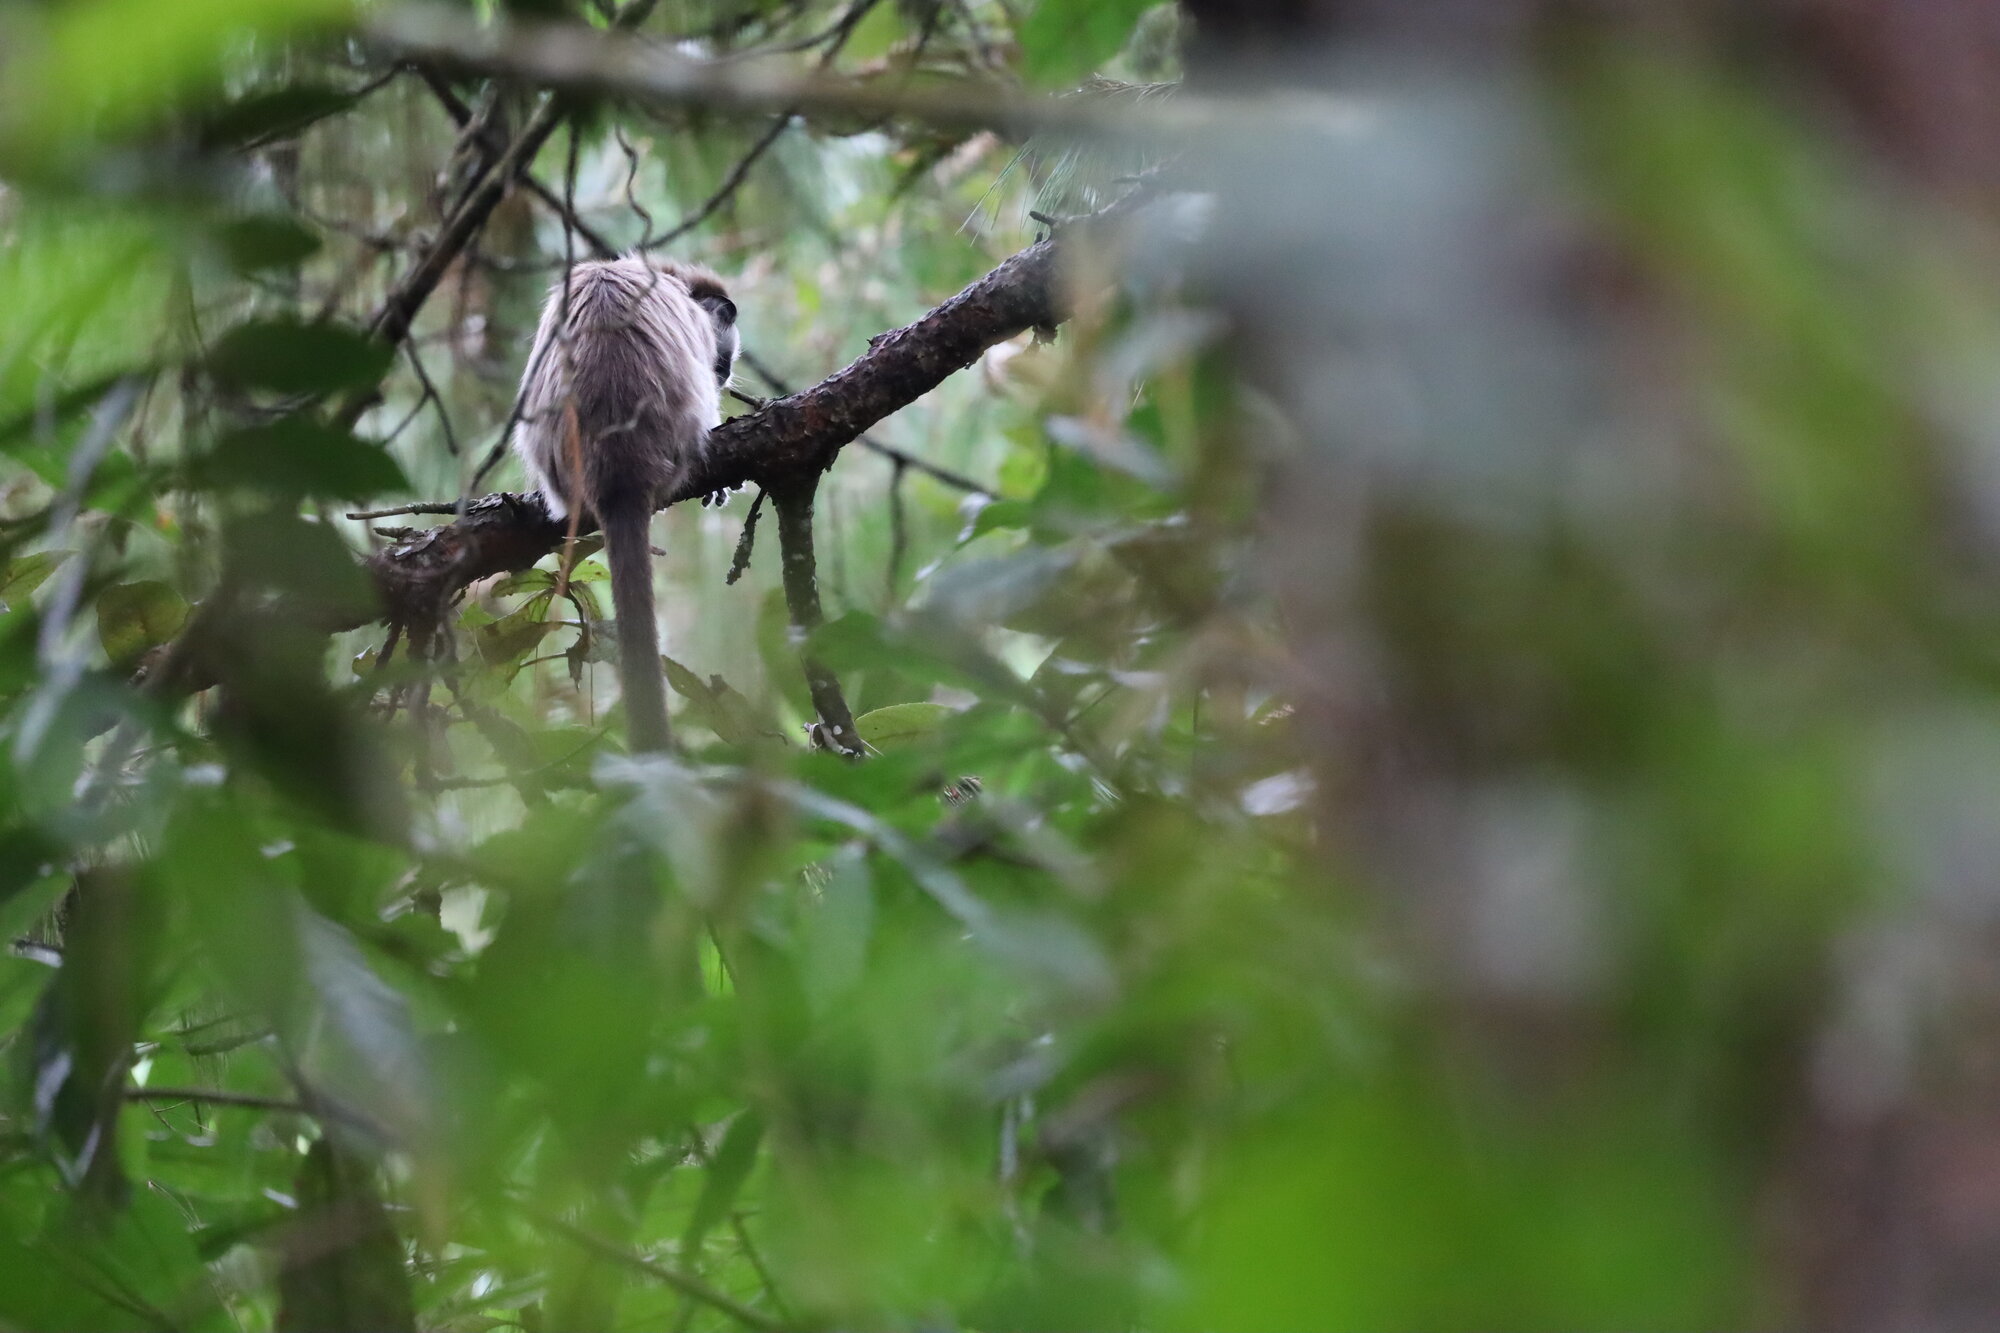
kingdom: Animalia
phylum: Chordata
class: Mammalia
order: Primates
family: Callitrichidae
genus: Saguinus
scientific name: Saguinus leucopus
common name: White-footed tamarin
